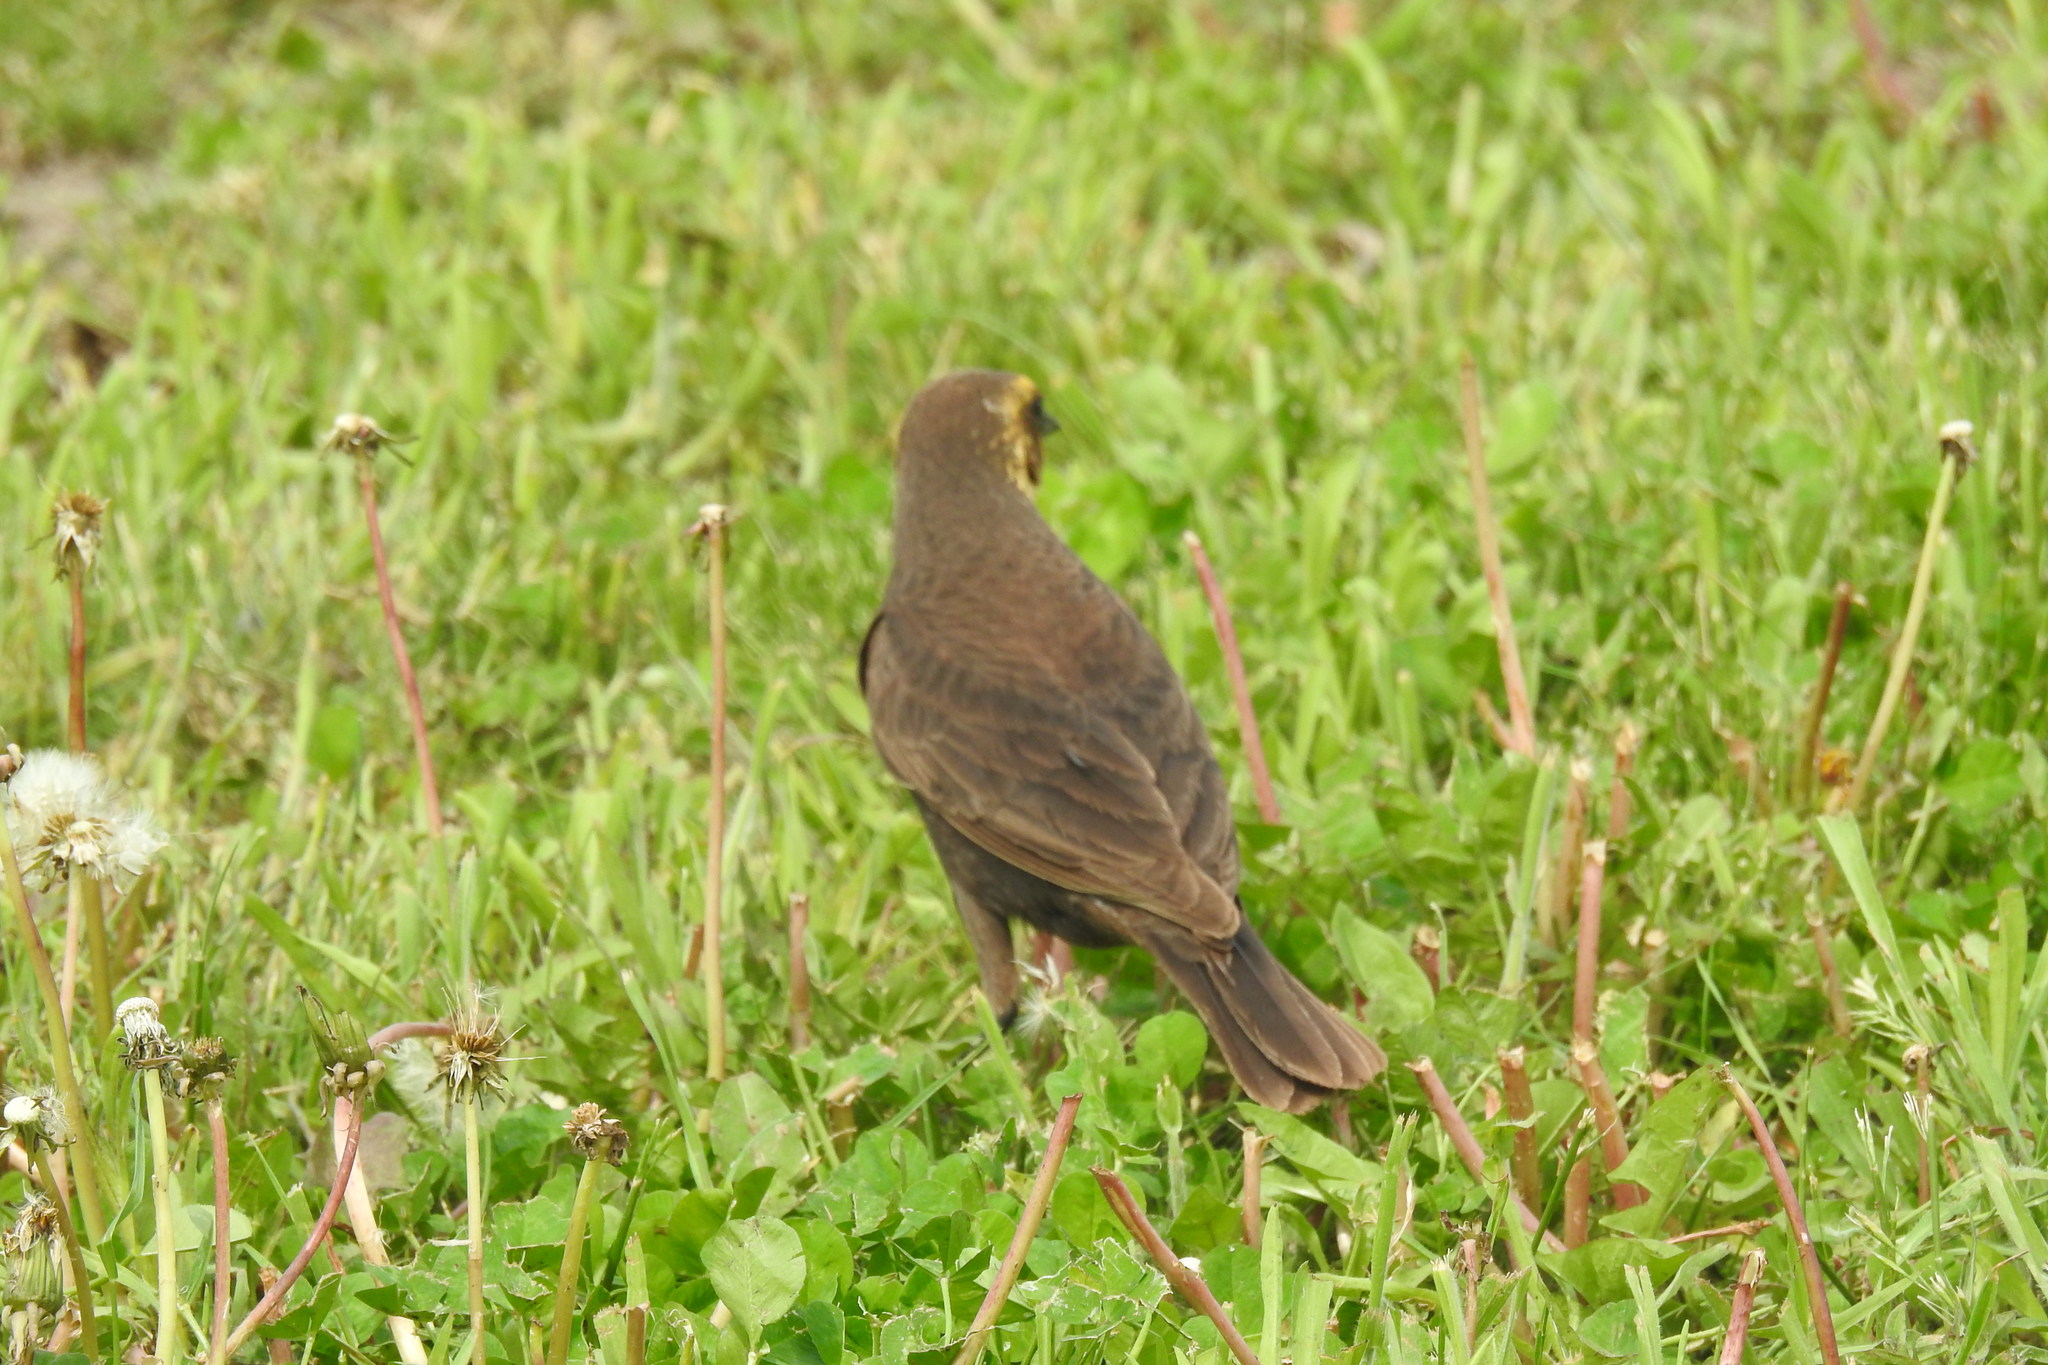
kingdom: Animalia
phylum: Chordata
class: Aves
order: Passeriformes
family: Icteridae
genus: Xanthocephalus
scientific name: Xanthocephalus xanthocephalus
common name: Yellow-headed blackbird
